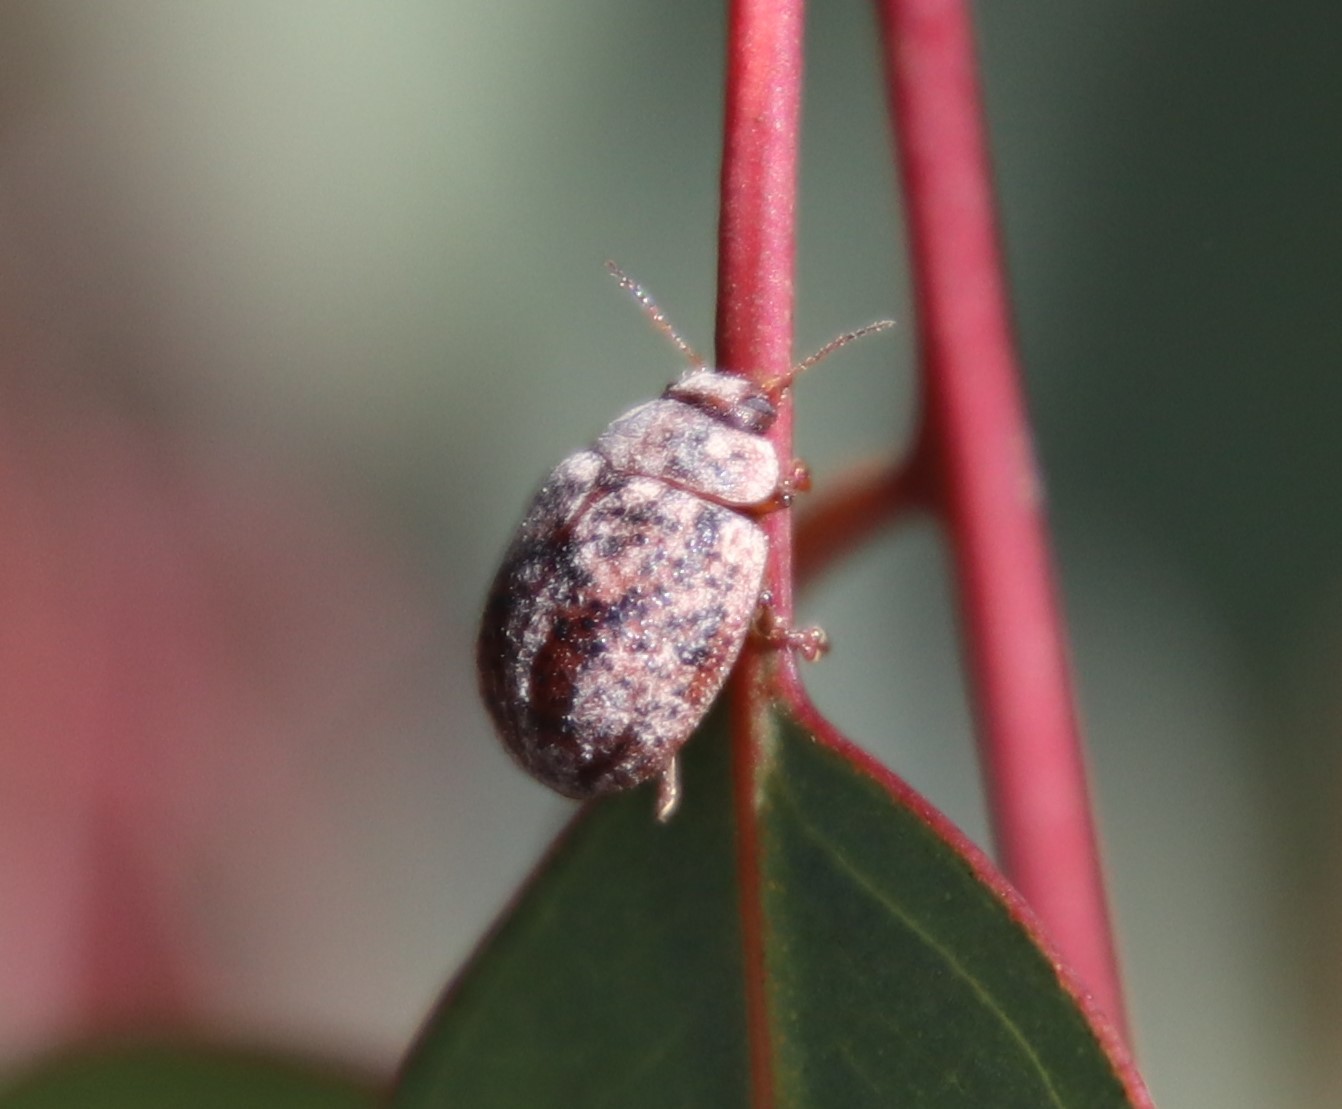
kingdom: Animalia
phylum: Arthropoda
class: Insecta
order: Coleoptera
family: Chrysomelidae
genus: Trachymela
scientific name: Trachymela sloanei
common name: Australian tortoise beetle
